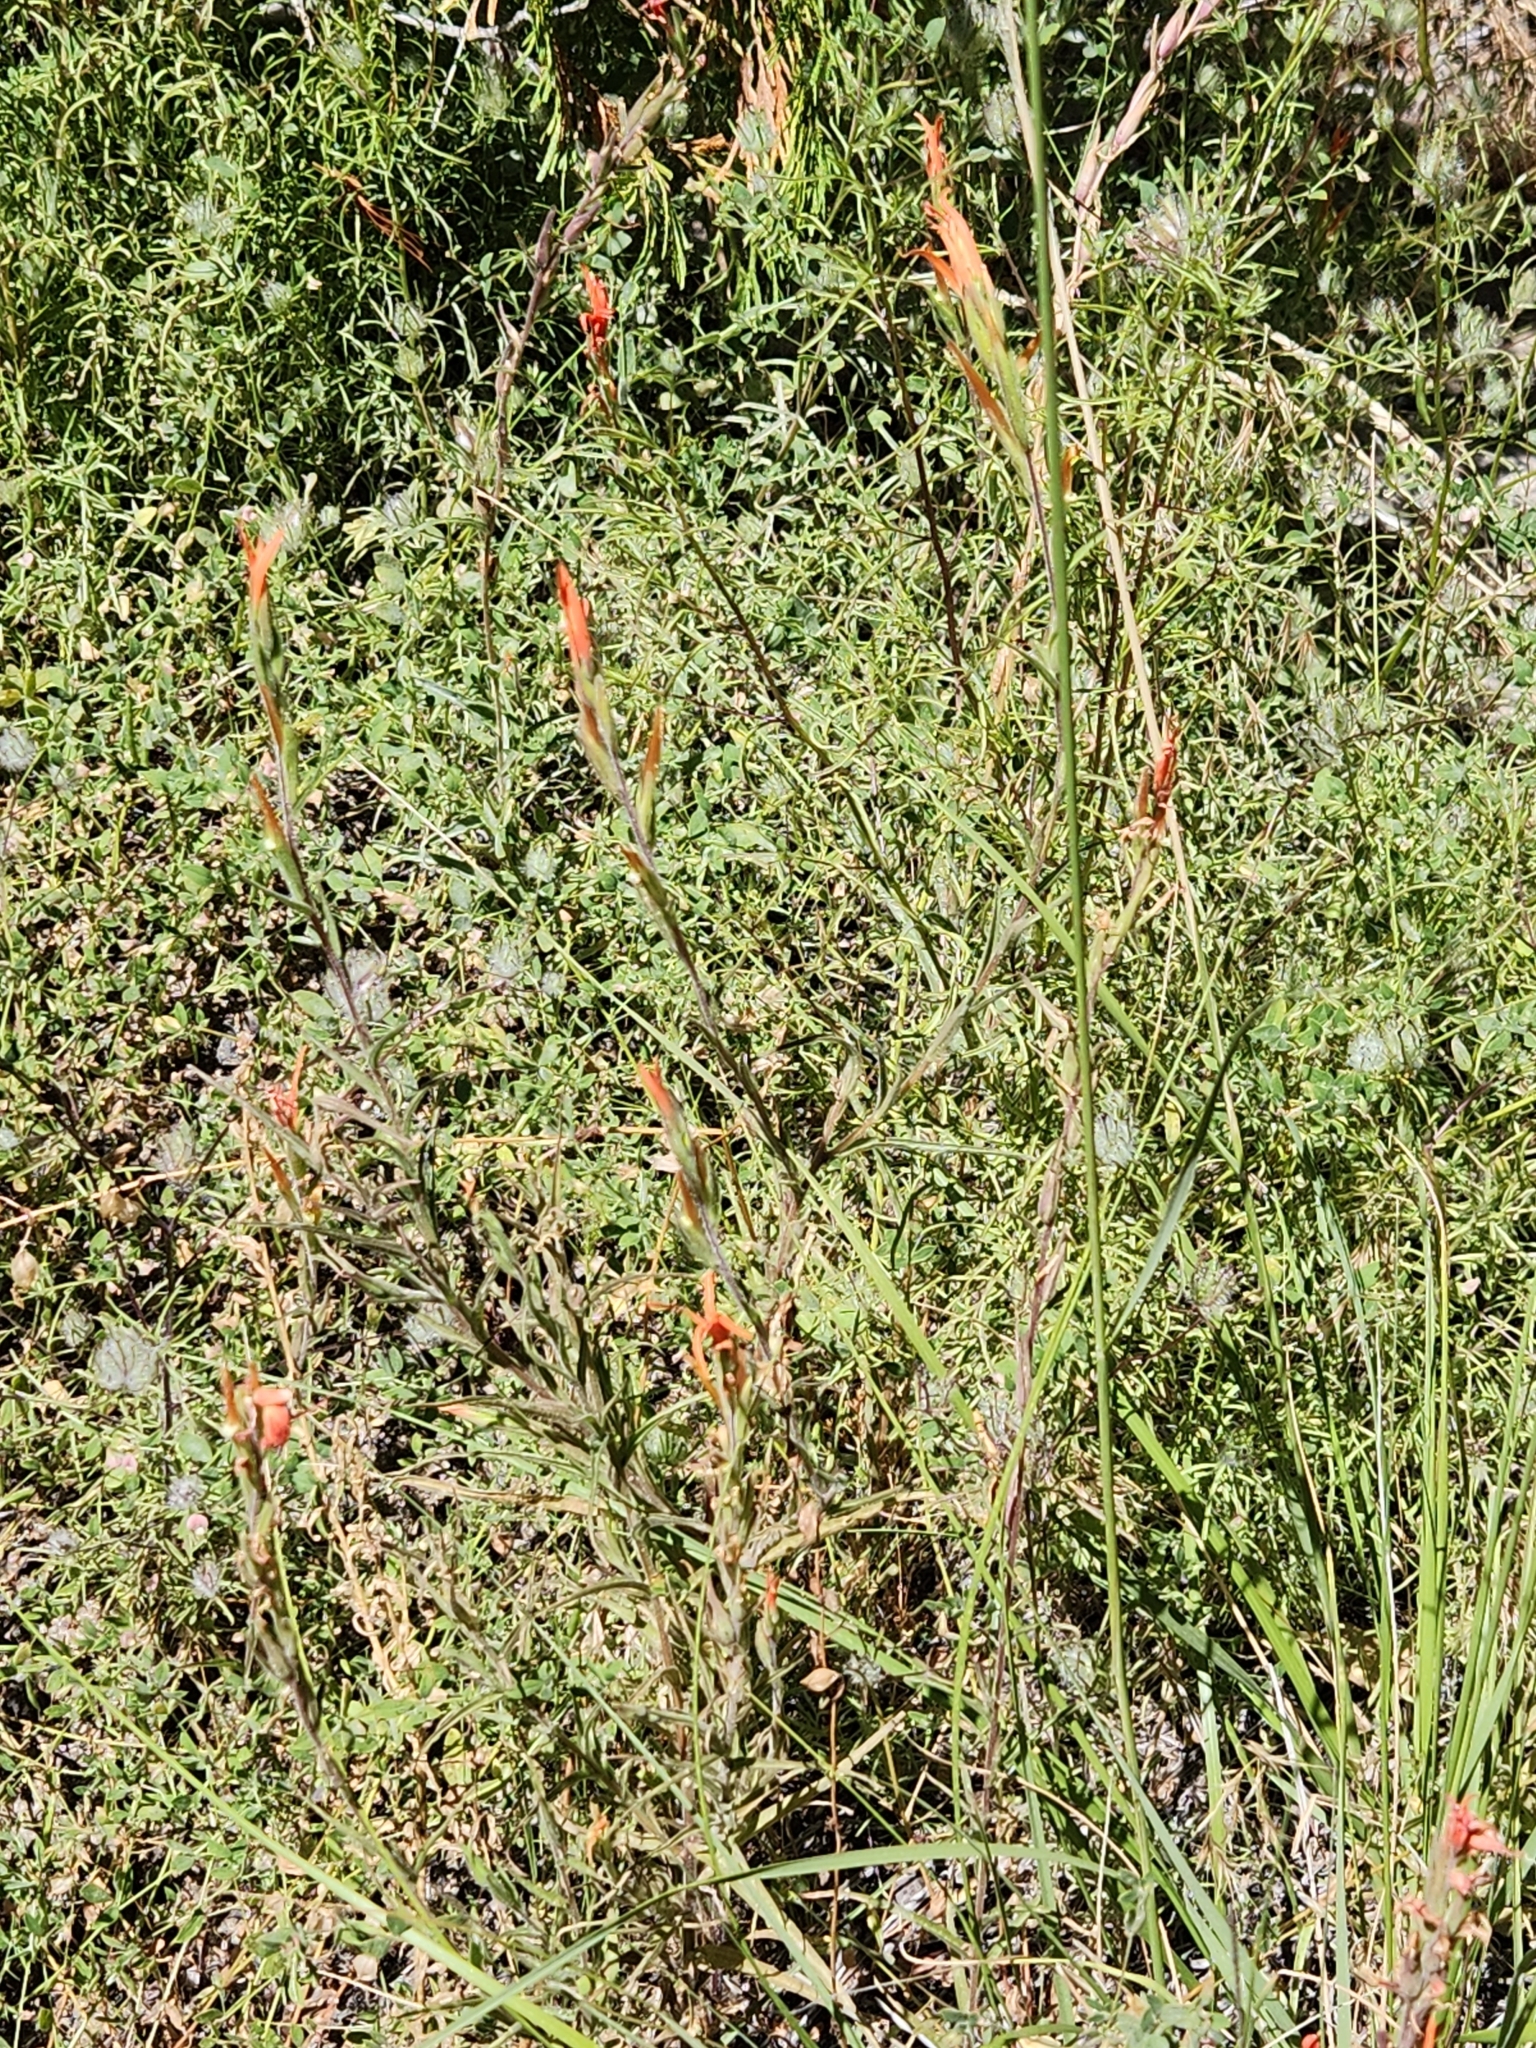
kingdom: Plantae
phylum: Tracheophyta
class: Magnoliopsida
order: Lamiales
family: Orobanchaceae
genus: Castilleja
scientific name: Castilleja minor
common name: Seep paintbrush
